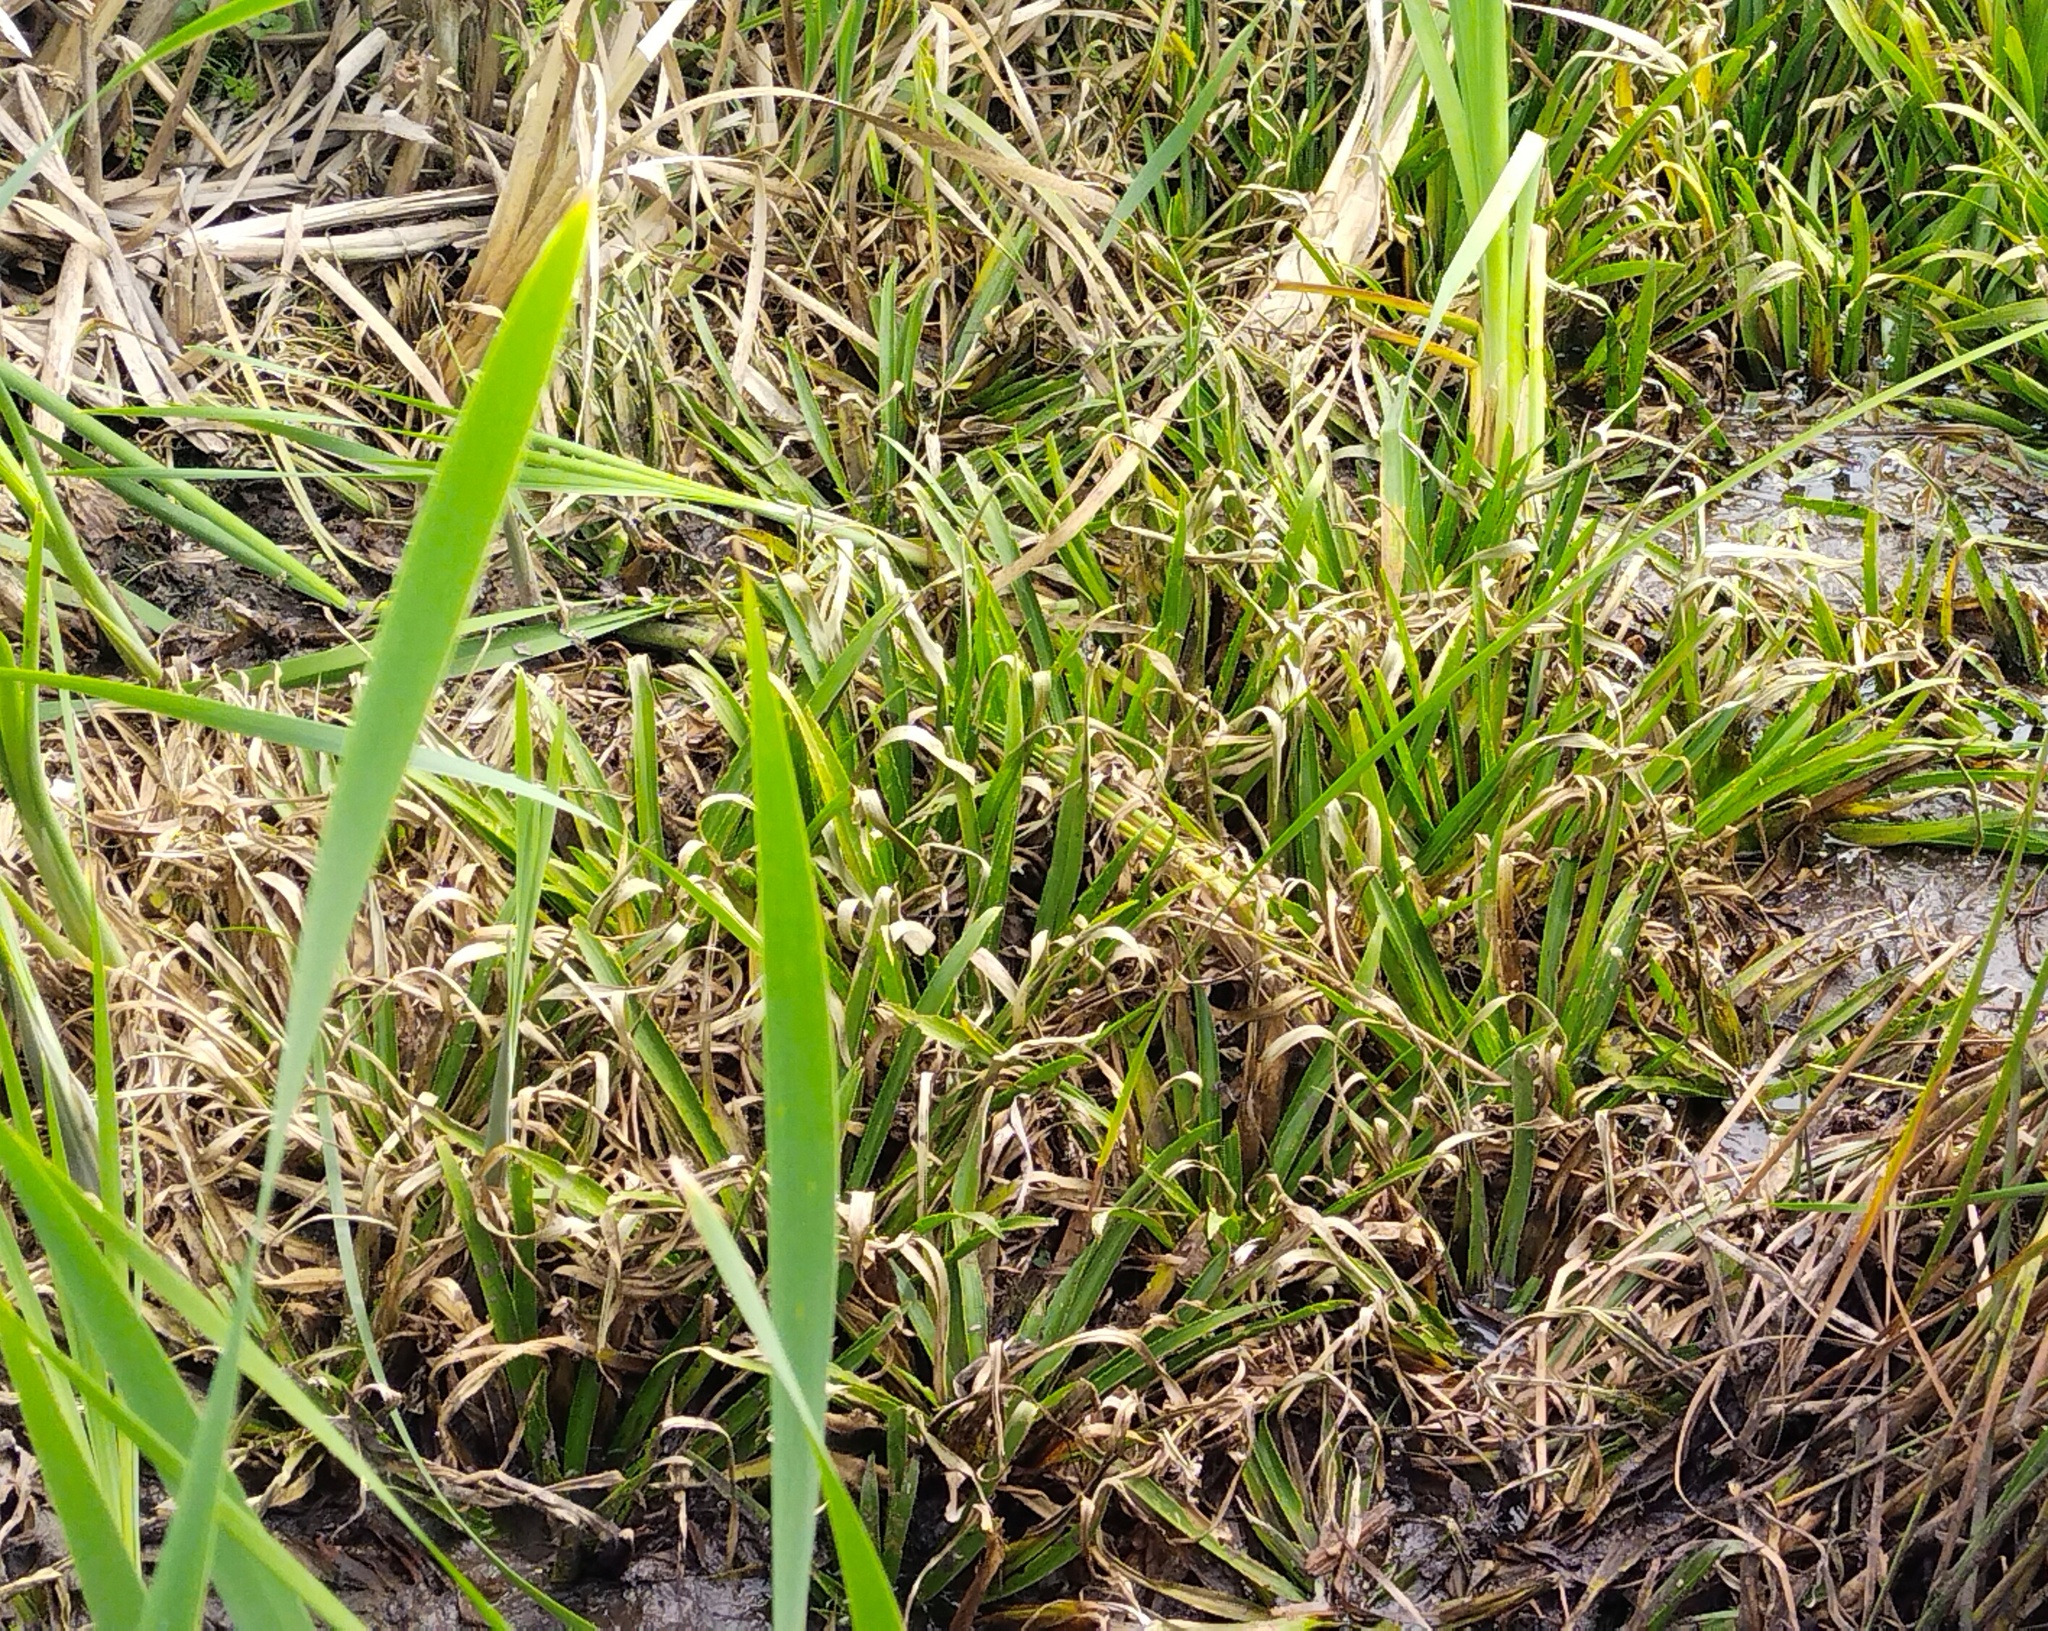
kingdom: Plantae
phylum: Tracheophyta
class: Liliopsida
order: Alismatales
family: Hydrocharitaceae
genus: Stratiotes
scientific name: Stratiotes aloides
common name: Water-soldier
